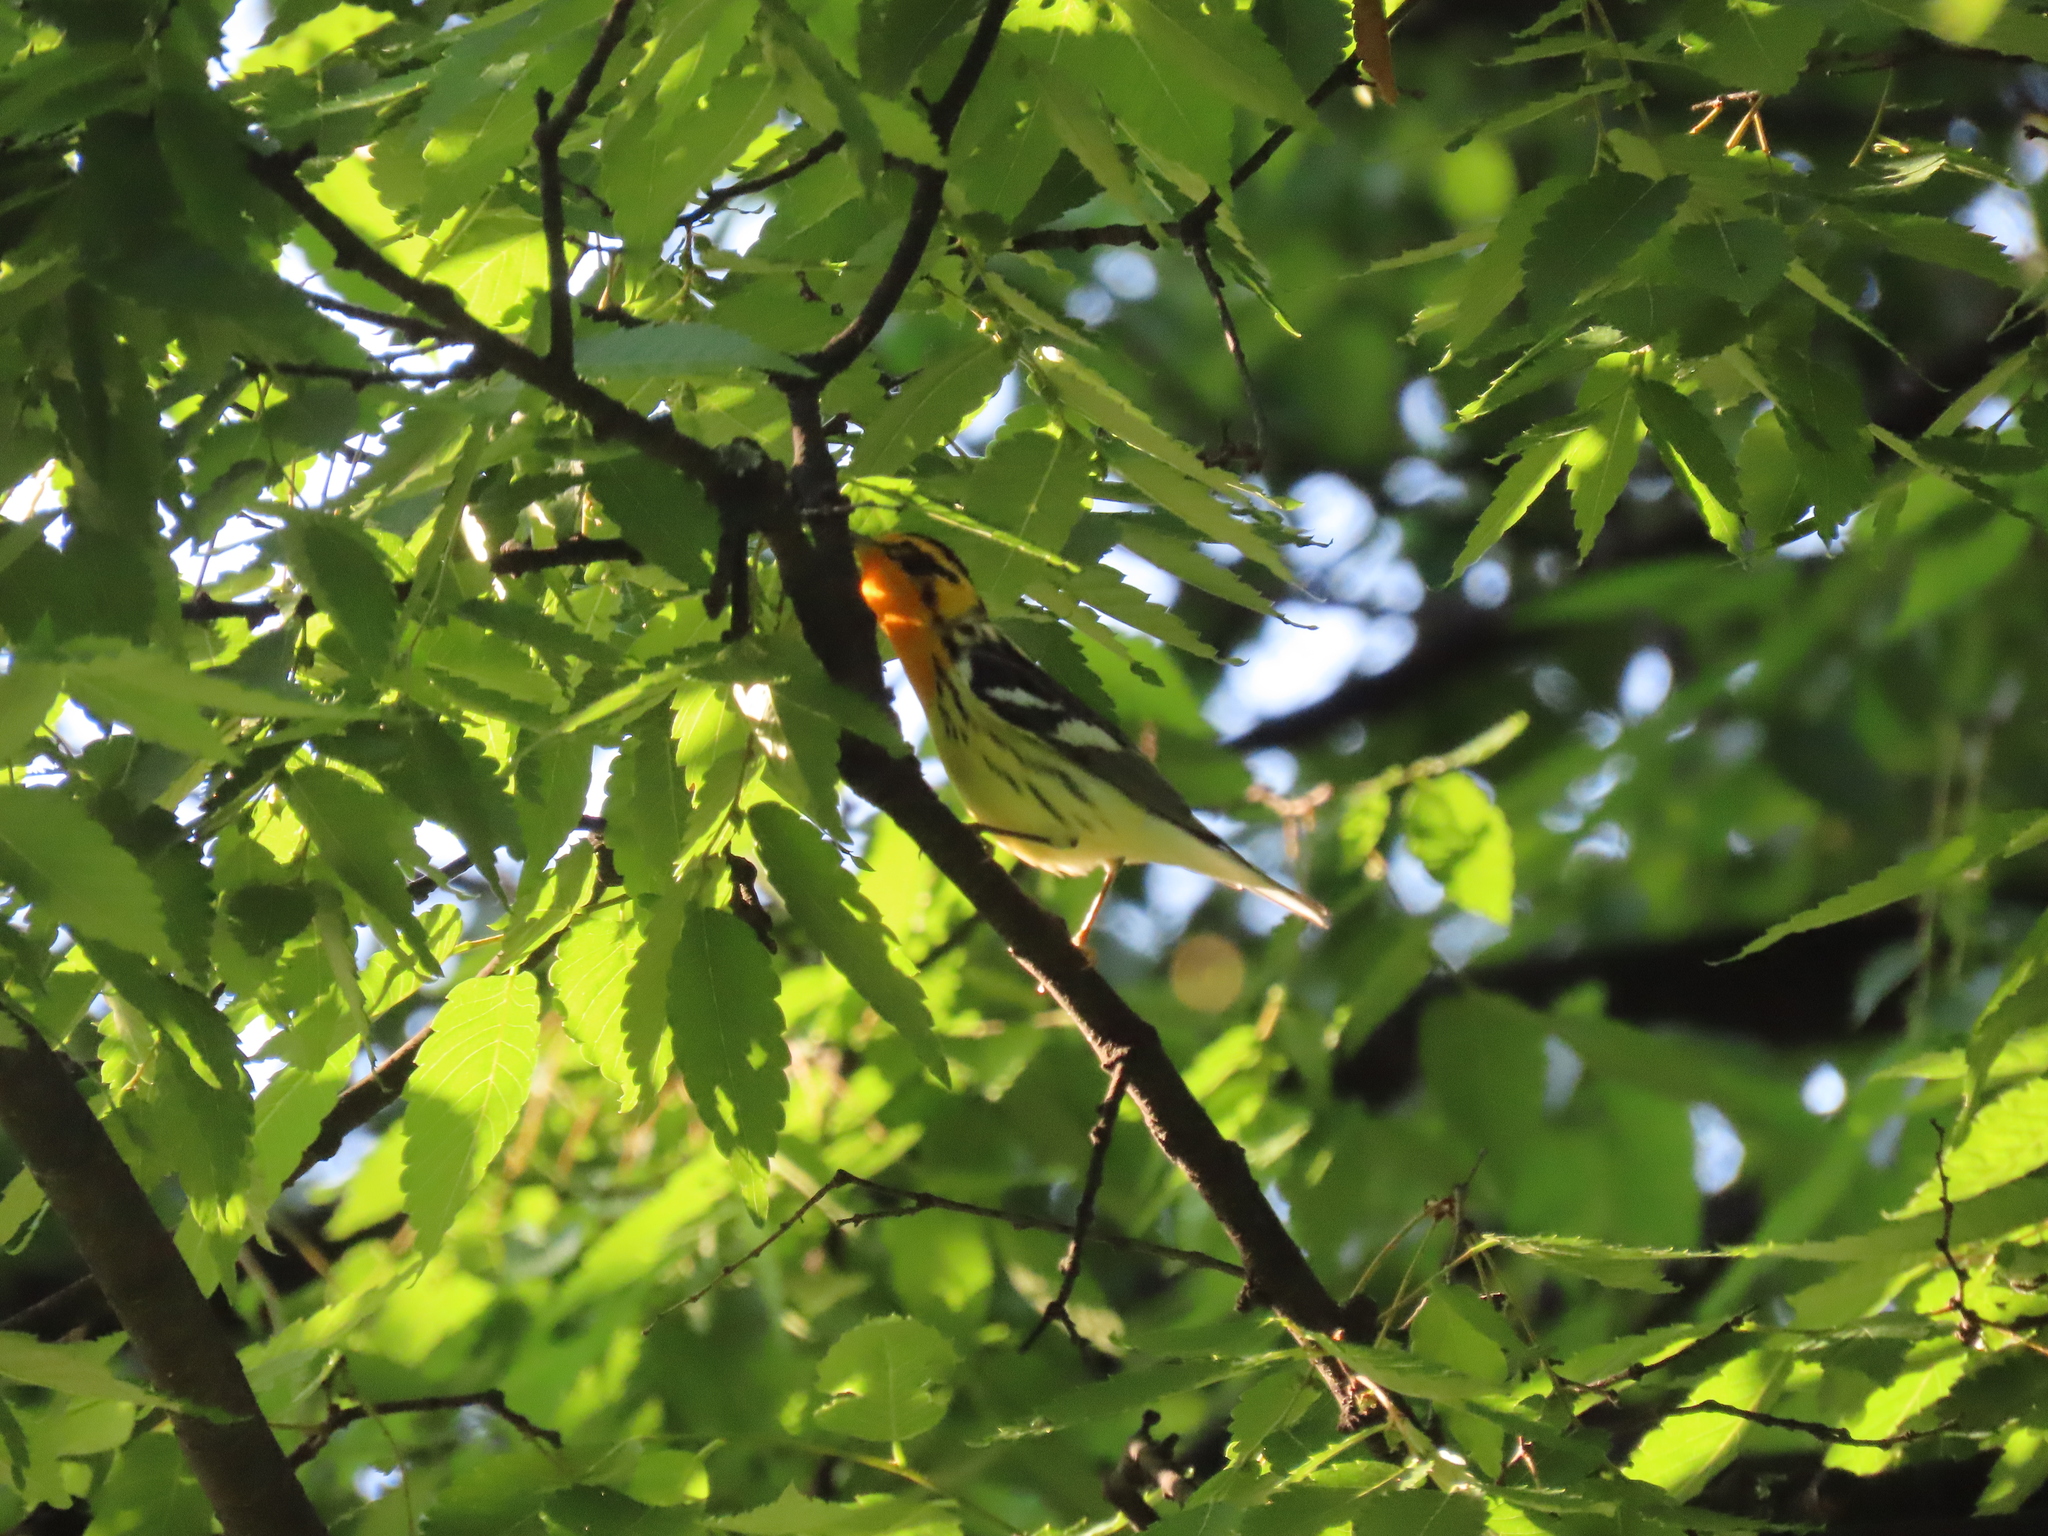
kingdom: Animalia
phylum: Chordata
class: Aves
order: Passeriformes
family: Parulidae
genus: Setophaga
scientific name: Setophaga fusca
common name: Blackburnian warbler
